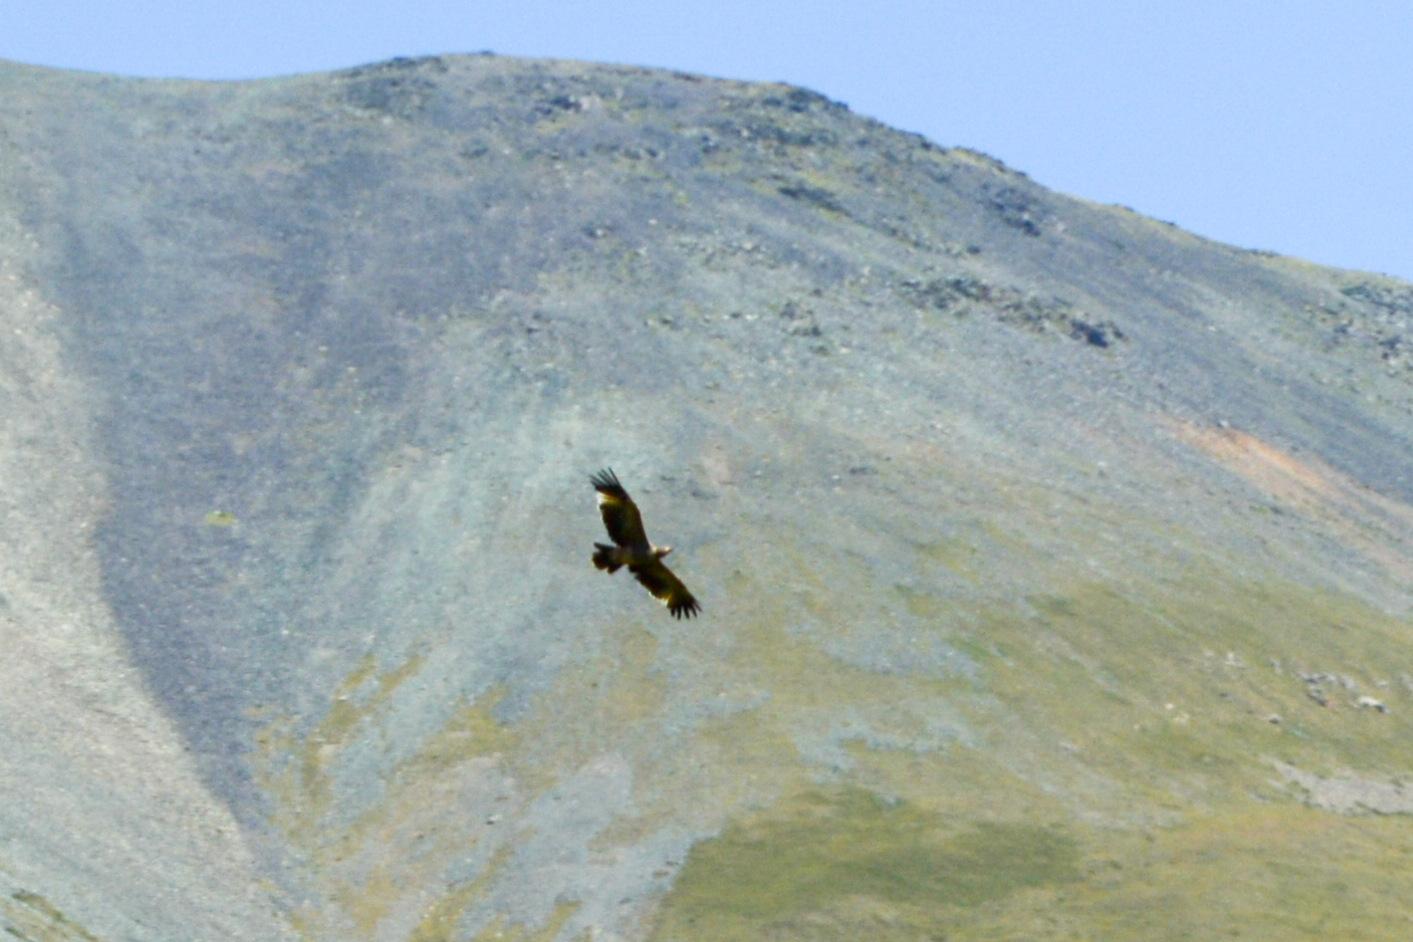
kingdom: Animalia
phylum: Chordata
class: Aves
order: Accipitriformes
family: Accipitridae
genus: Milvus
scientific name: Milvus migrans
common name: Black kite
